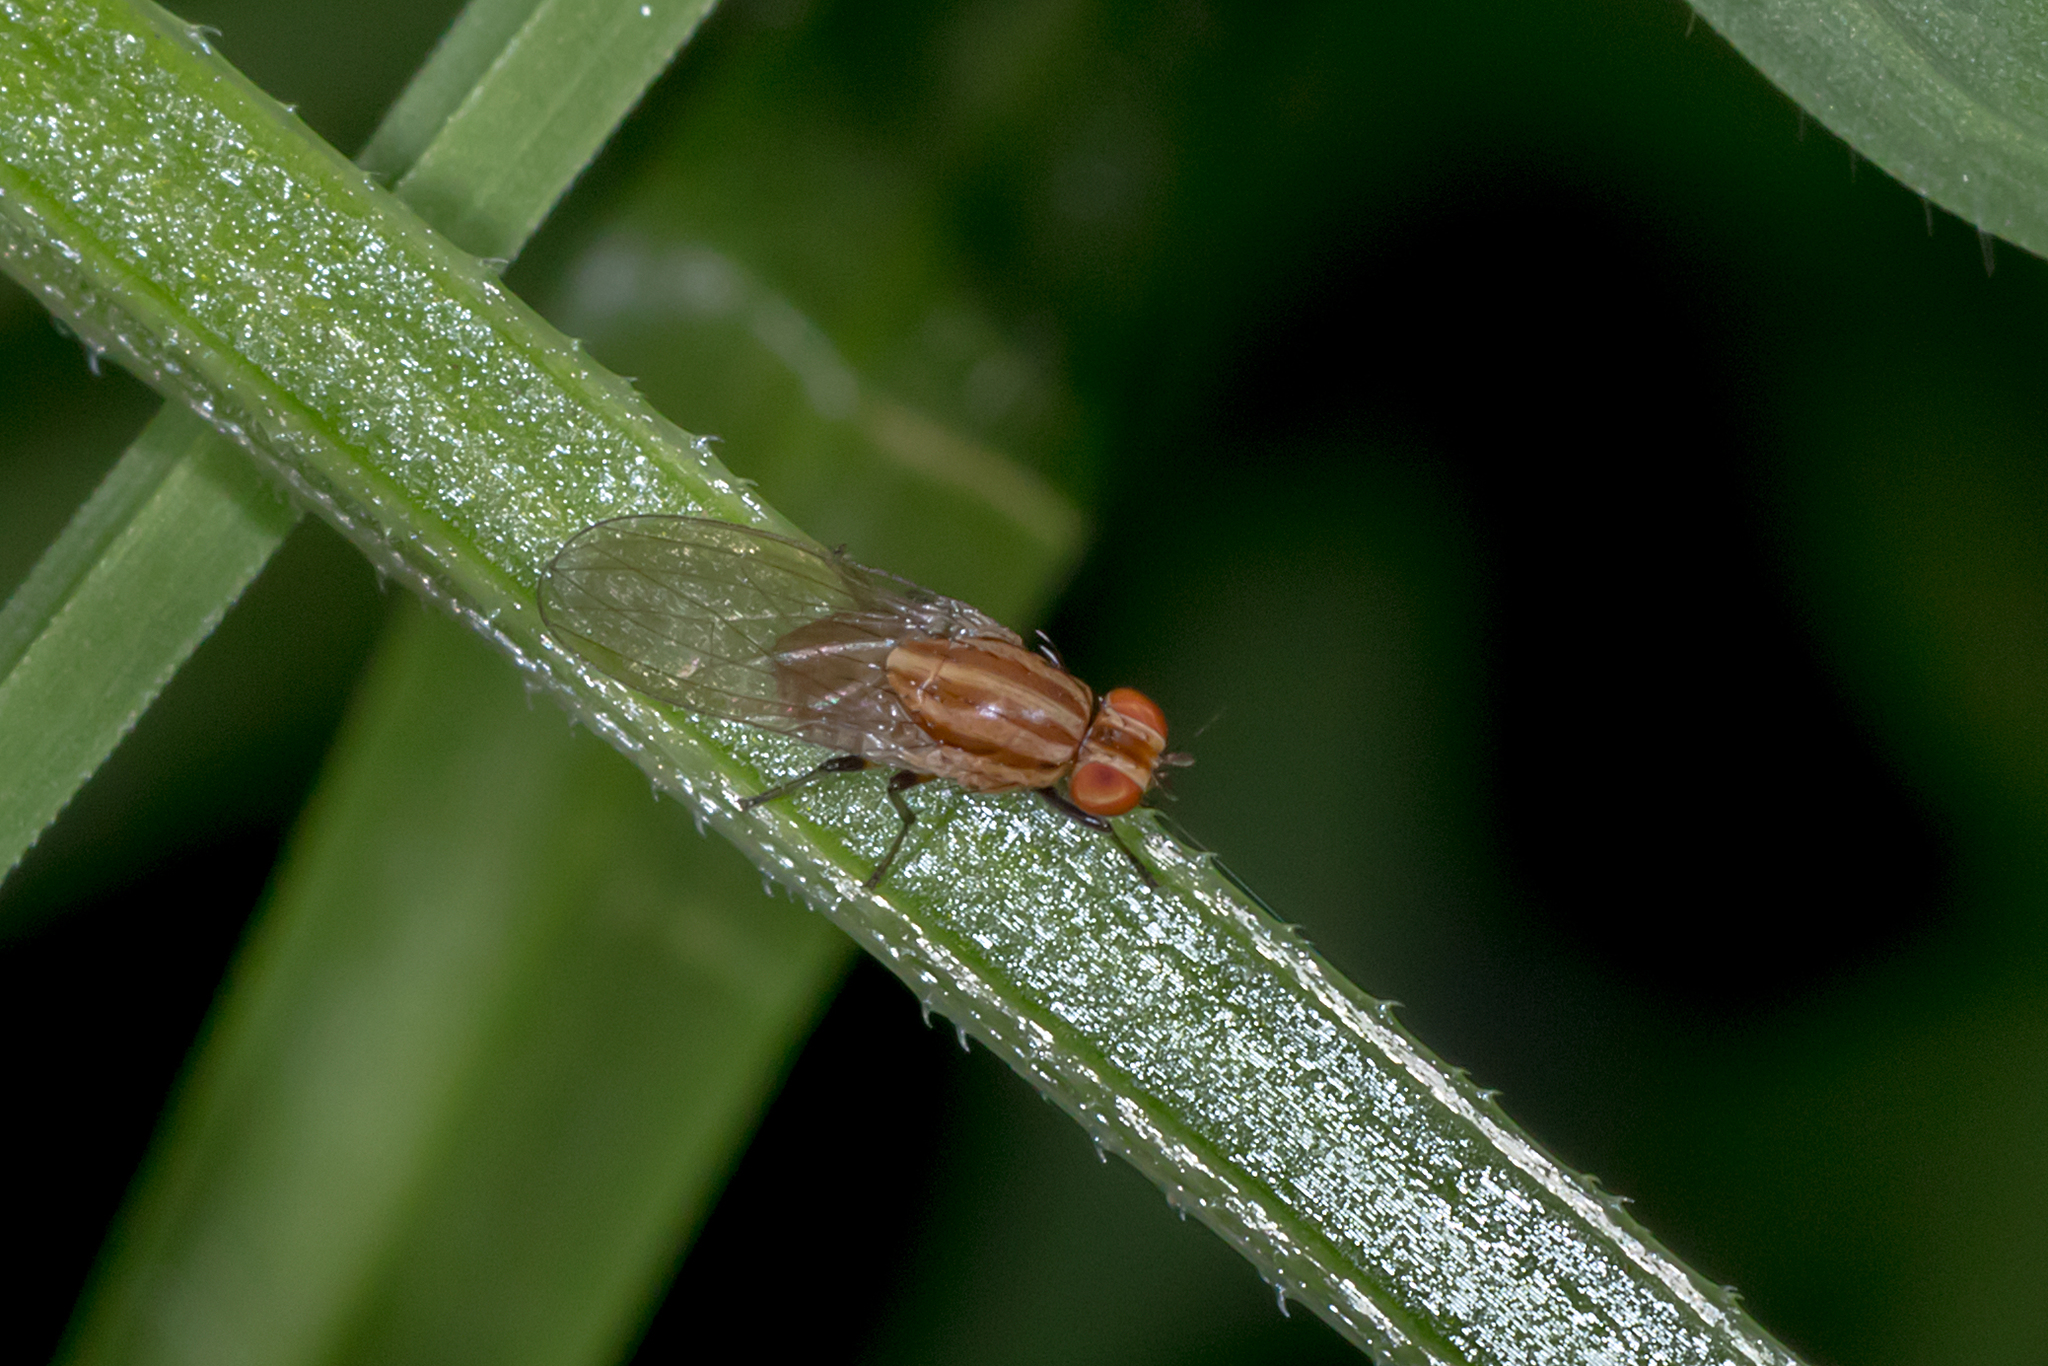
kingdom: Animalia
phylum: Arthropoda
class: Insecta
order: Diptera
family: Lauxaniidae
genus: Sapromyza
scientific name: Sapromyza brunneovittata
